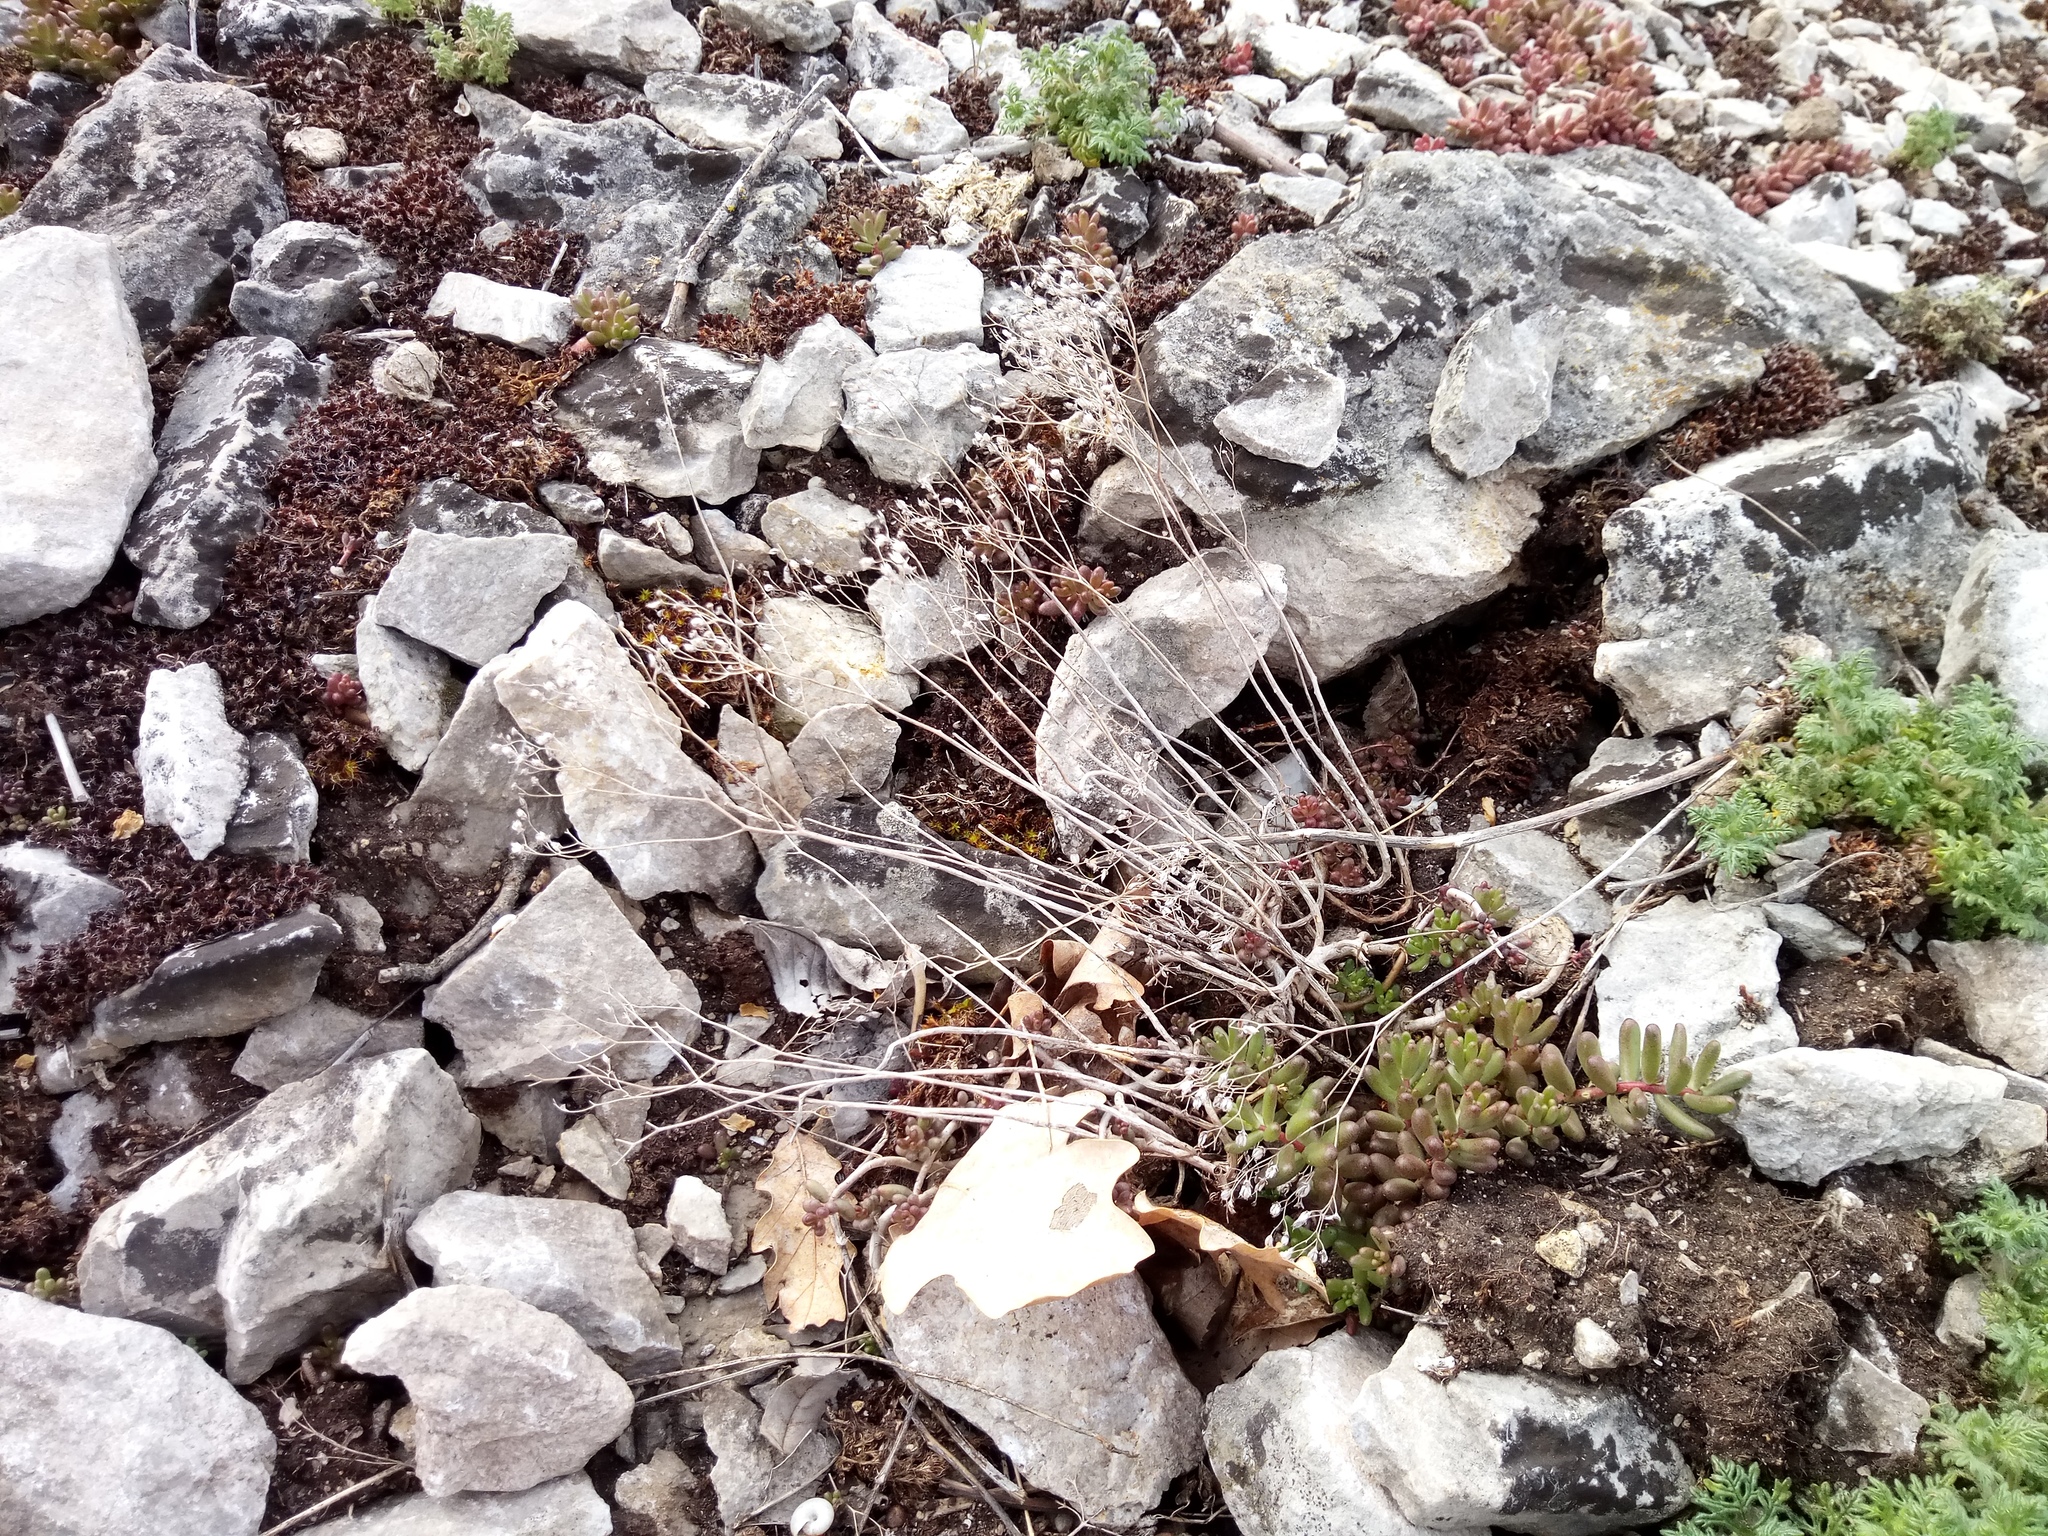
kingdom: Plantae
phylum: Tracheophyta
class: Magnoliopsida
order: Saxifragales
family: Crassulaceae
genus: Sedum
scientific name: Sedum album
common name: White stonecrop
